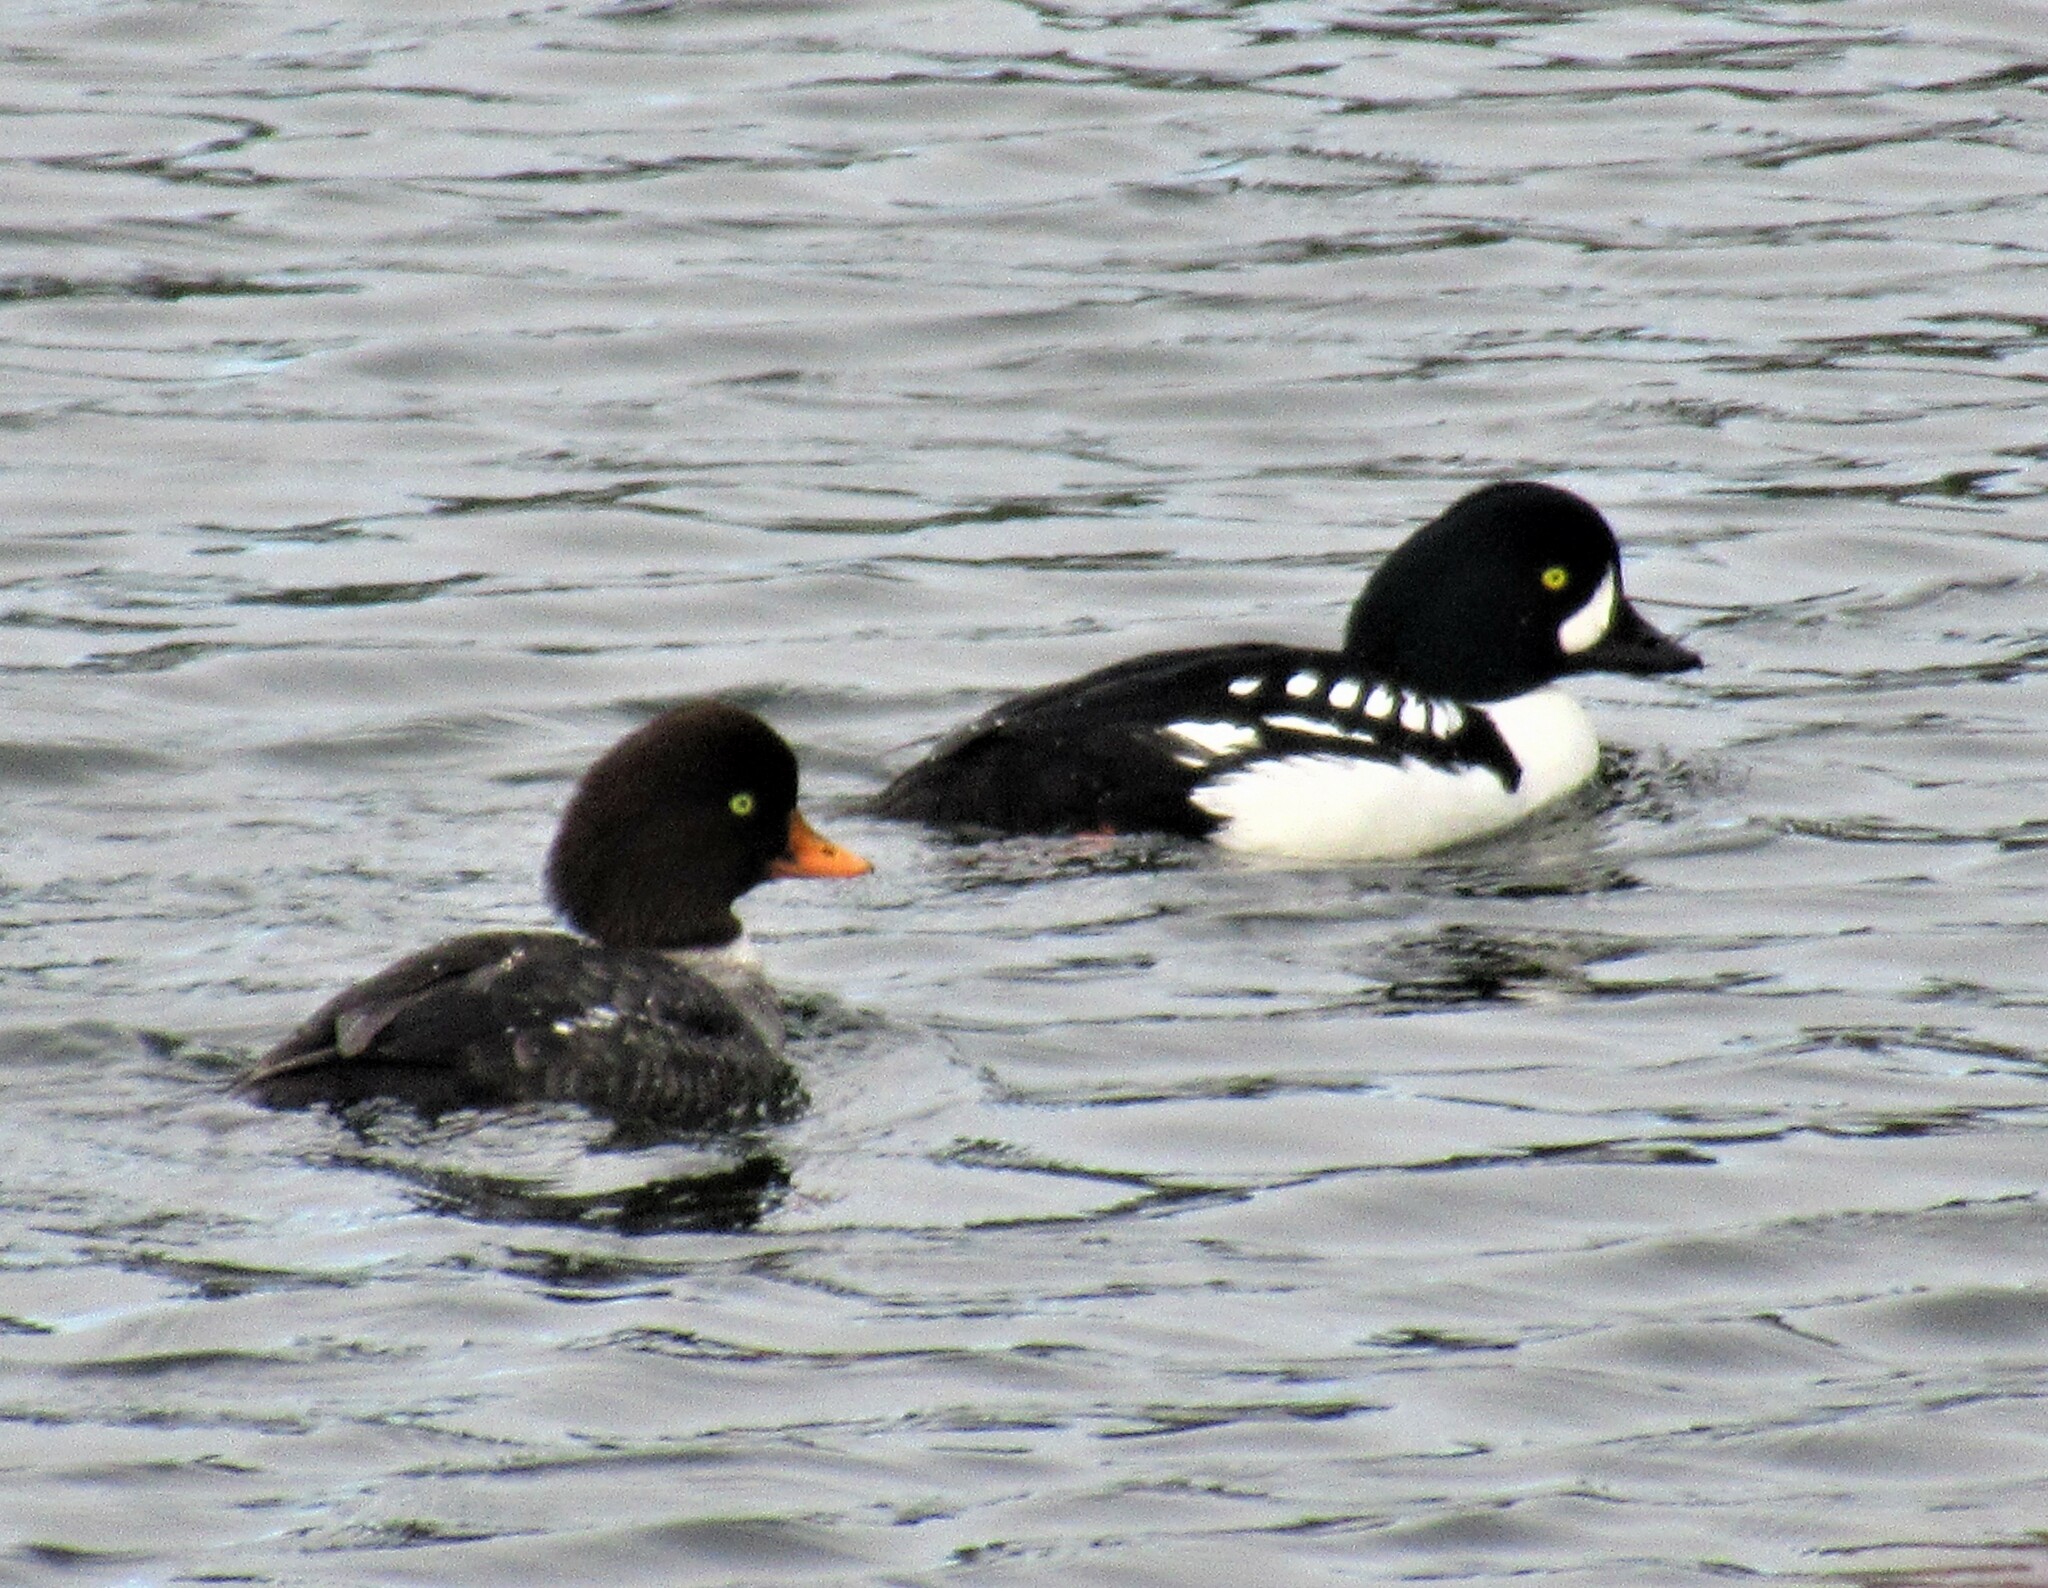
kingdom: Animalia
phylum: Chordata
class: Aves
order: Anseriformes
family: Anatidae
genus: Bucephala
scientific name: Bucephala islandica
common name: Barrow's goldeneye
